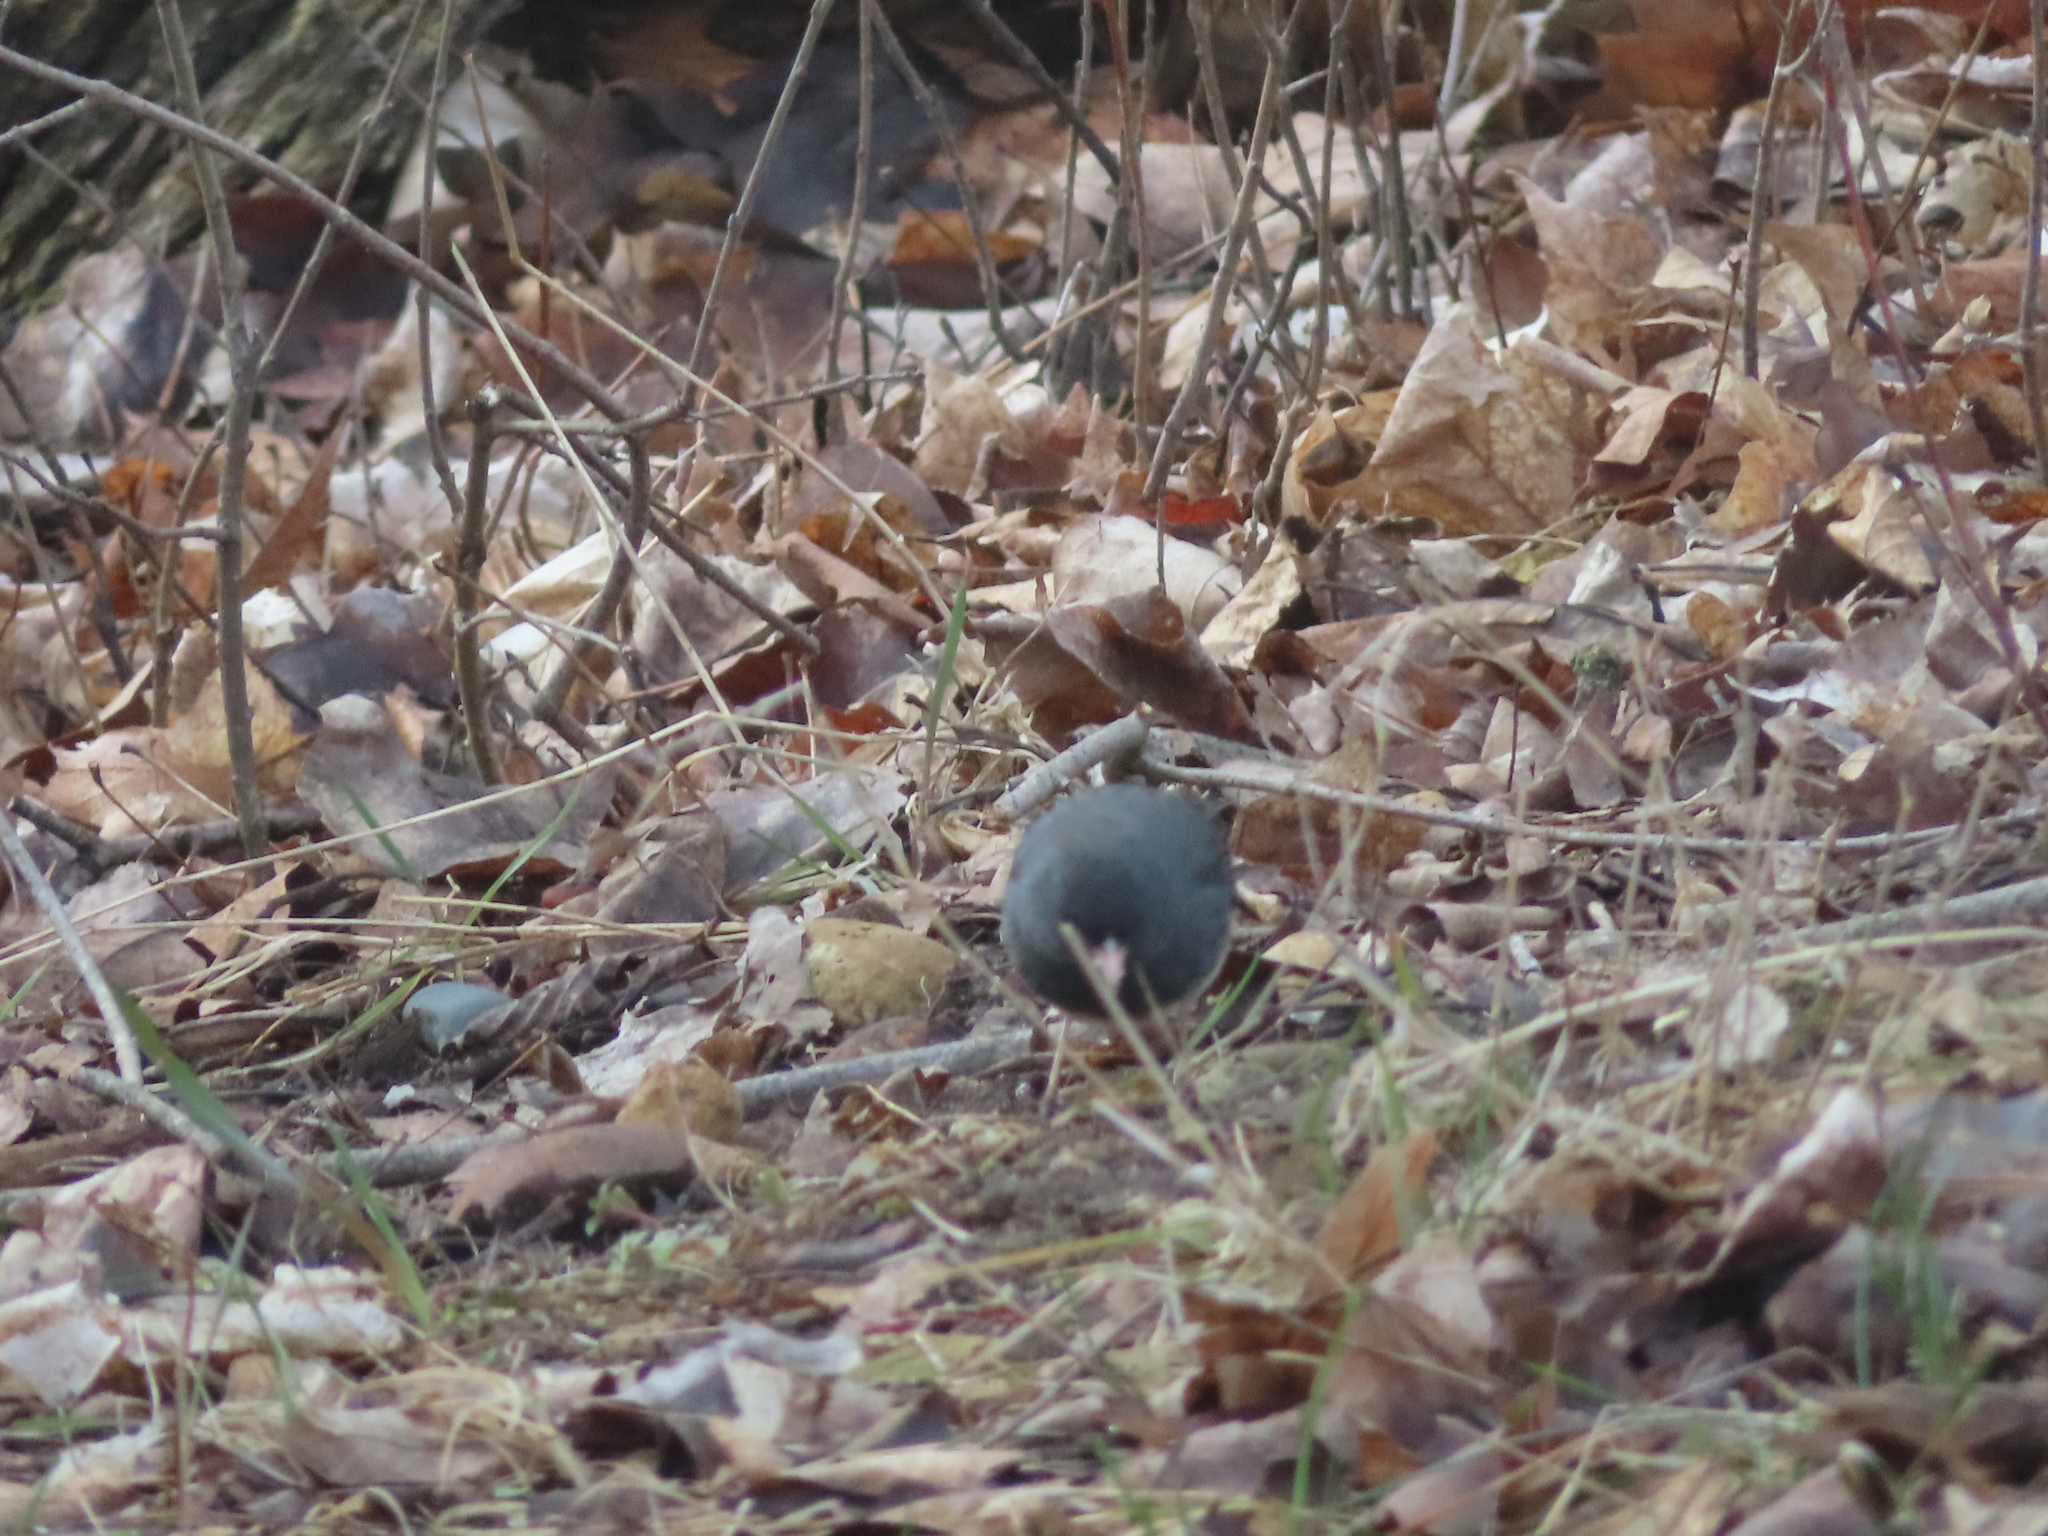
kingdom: Animalia
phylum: Chordata
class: Aves
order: Passeriformes
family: Passerellidae
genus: Junco
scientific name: Junco hyemalis
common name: Dark-eyed junco
